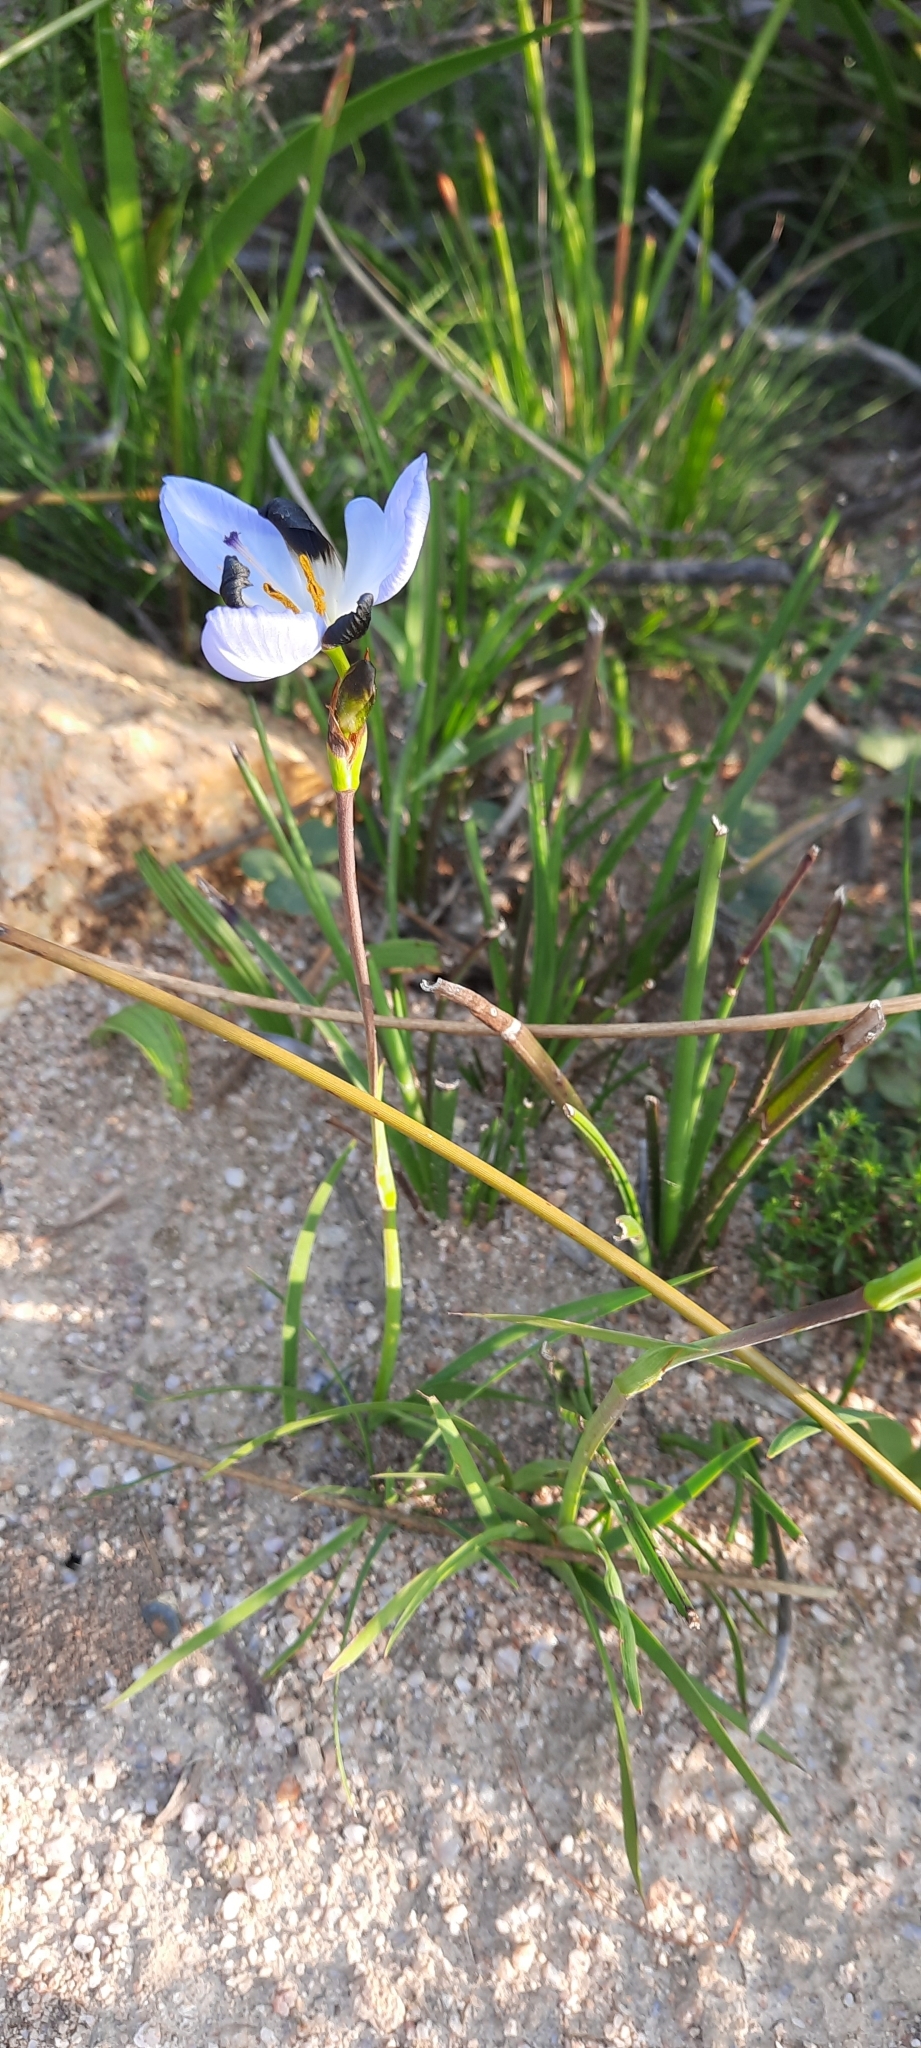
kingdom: Plantae
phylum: Tracheophyta
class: Liliopsida
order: Asparagales
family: Iridaceae
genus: Aristea
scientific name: Aristea lugens
